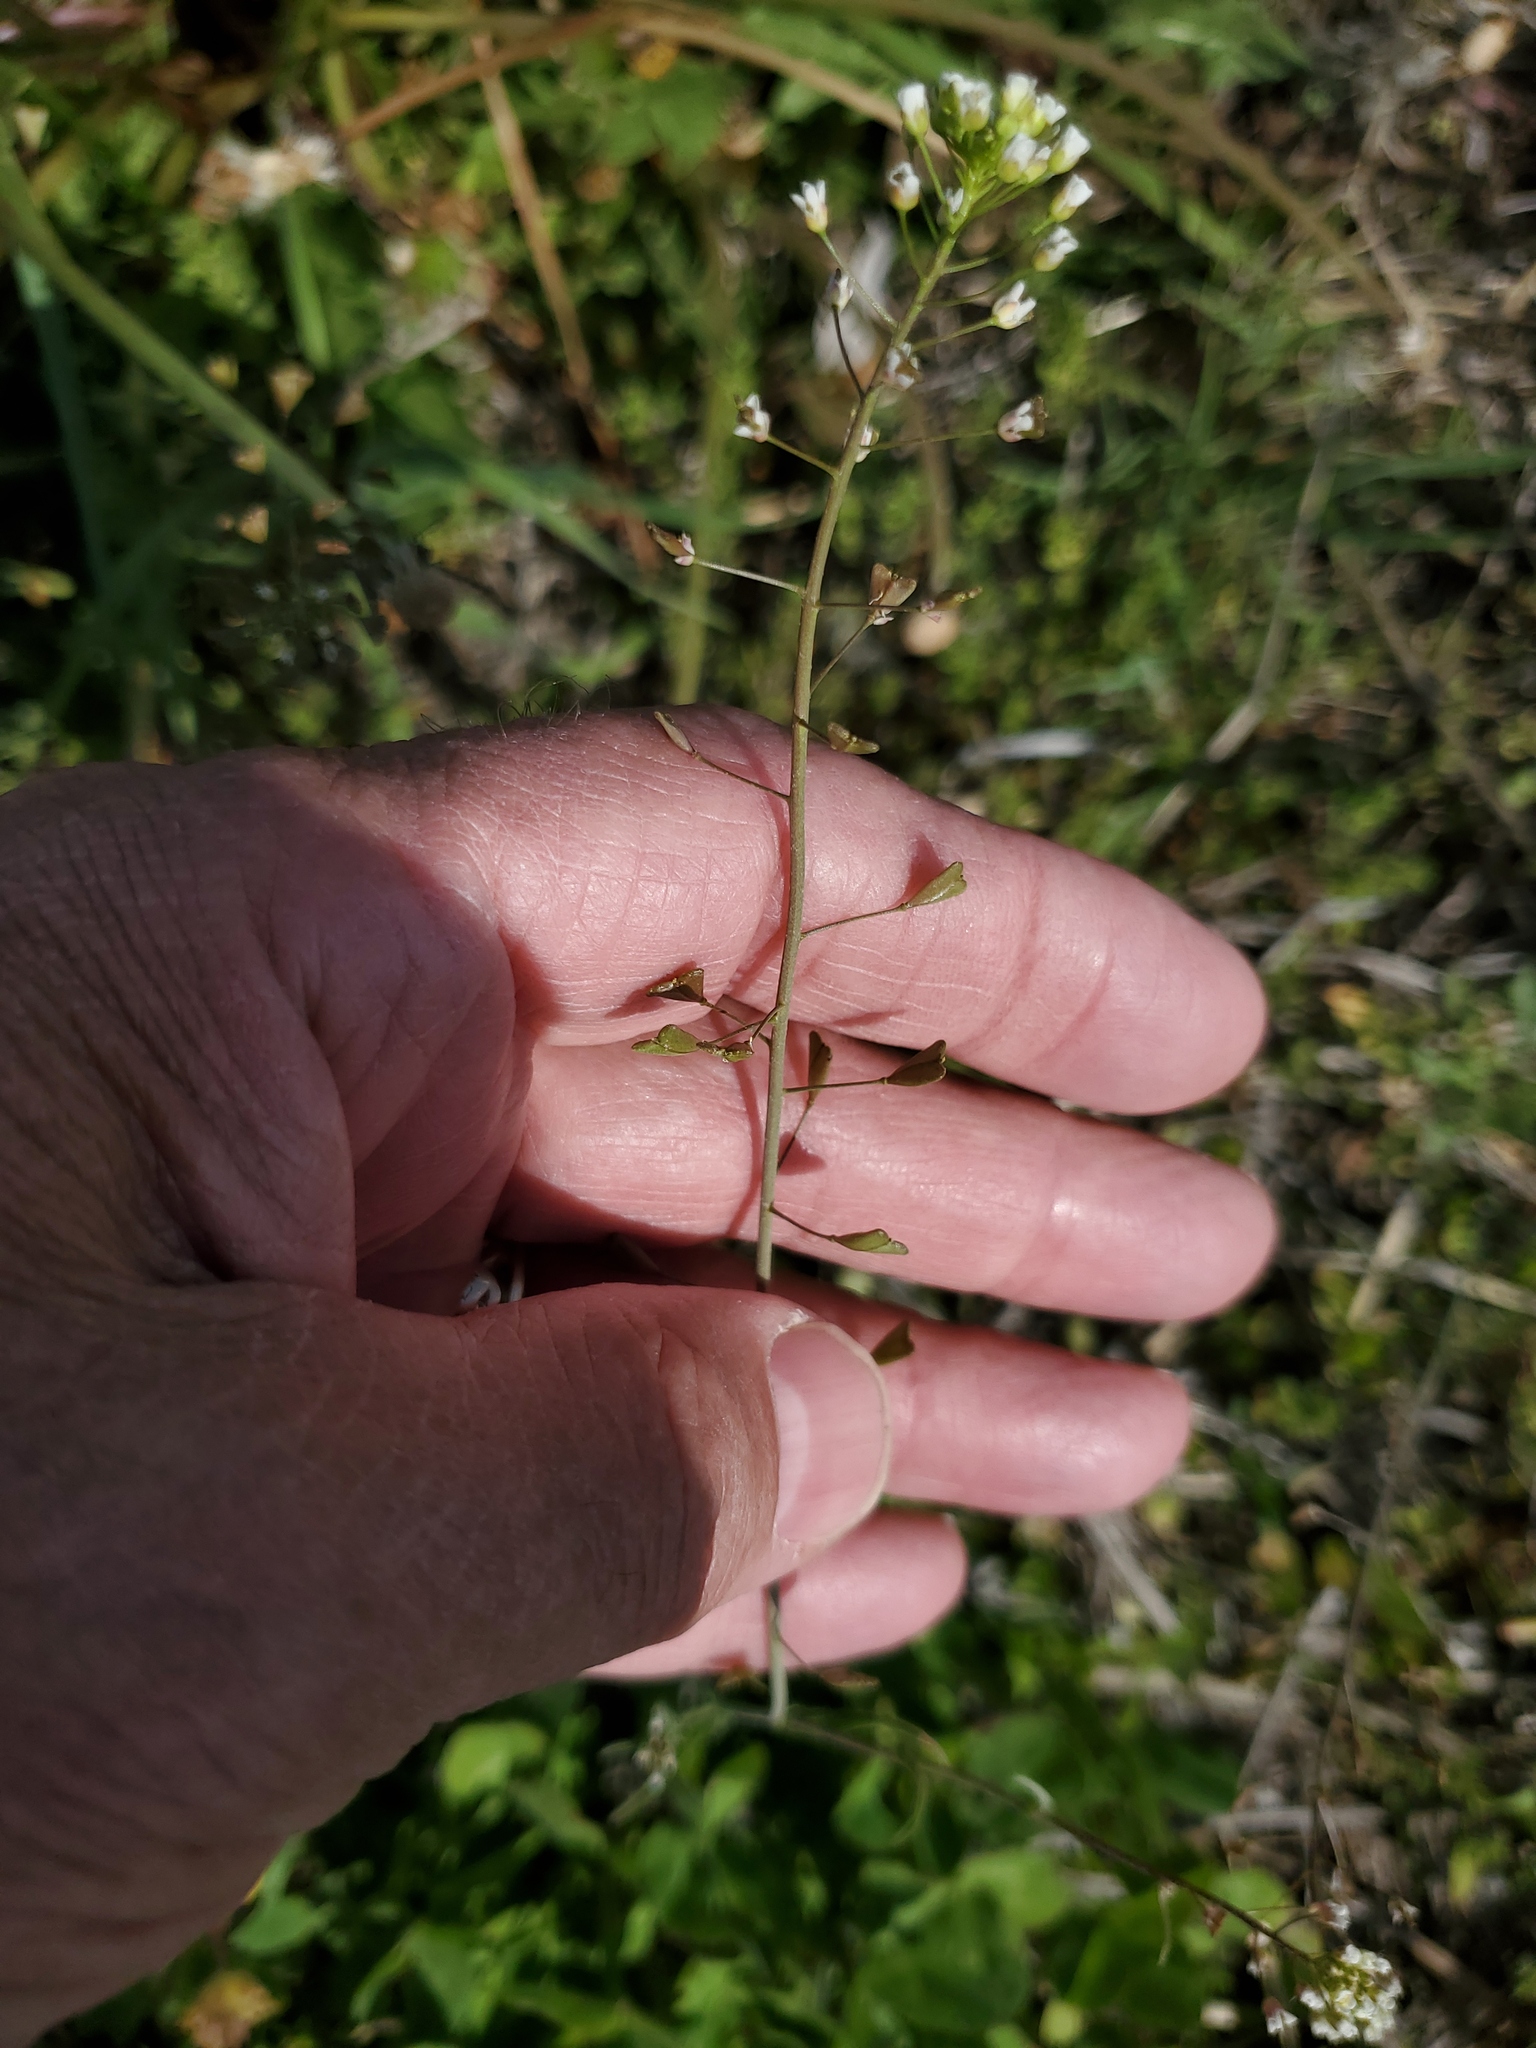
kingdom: Plantae
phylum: Tracheophyta
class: Magnoliopsida
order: Brassicales
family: Brassicaceae
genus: Capsella
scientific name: Capsella bursa-pastoris
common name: Shepherd's purse
